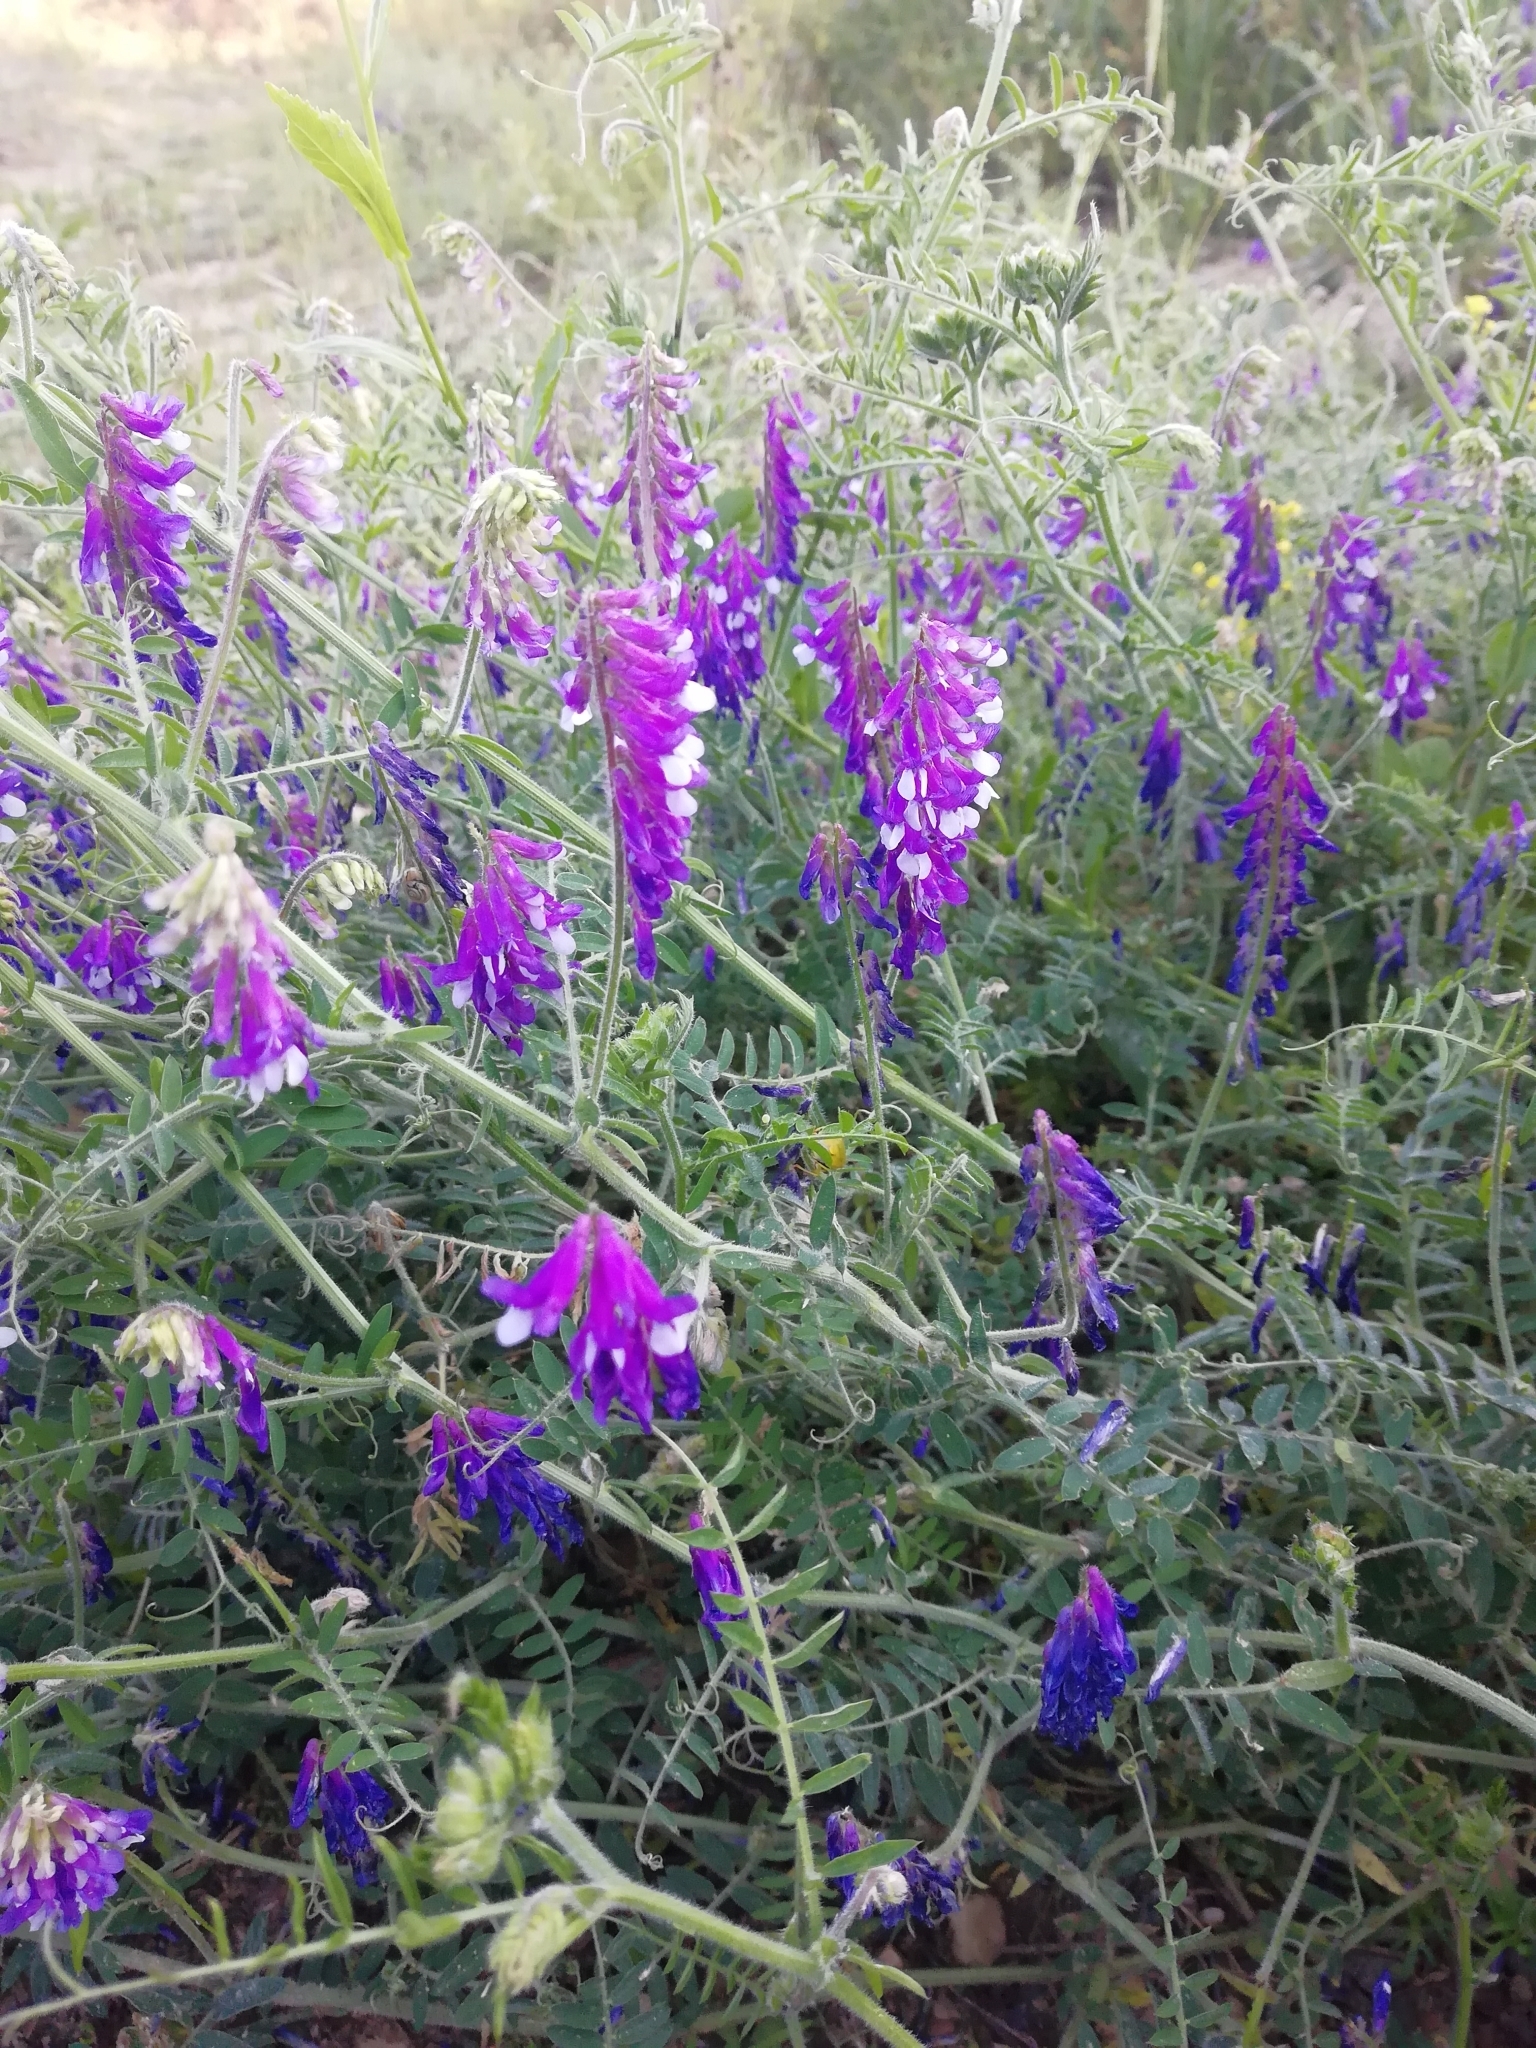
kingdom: Plantae
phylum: Tracheophyta
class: Magnoliopsida
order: Fabales
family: Fabaceae
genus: Vicia
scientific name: Vicia villosa
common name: Fodder vetch
